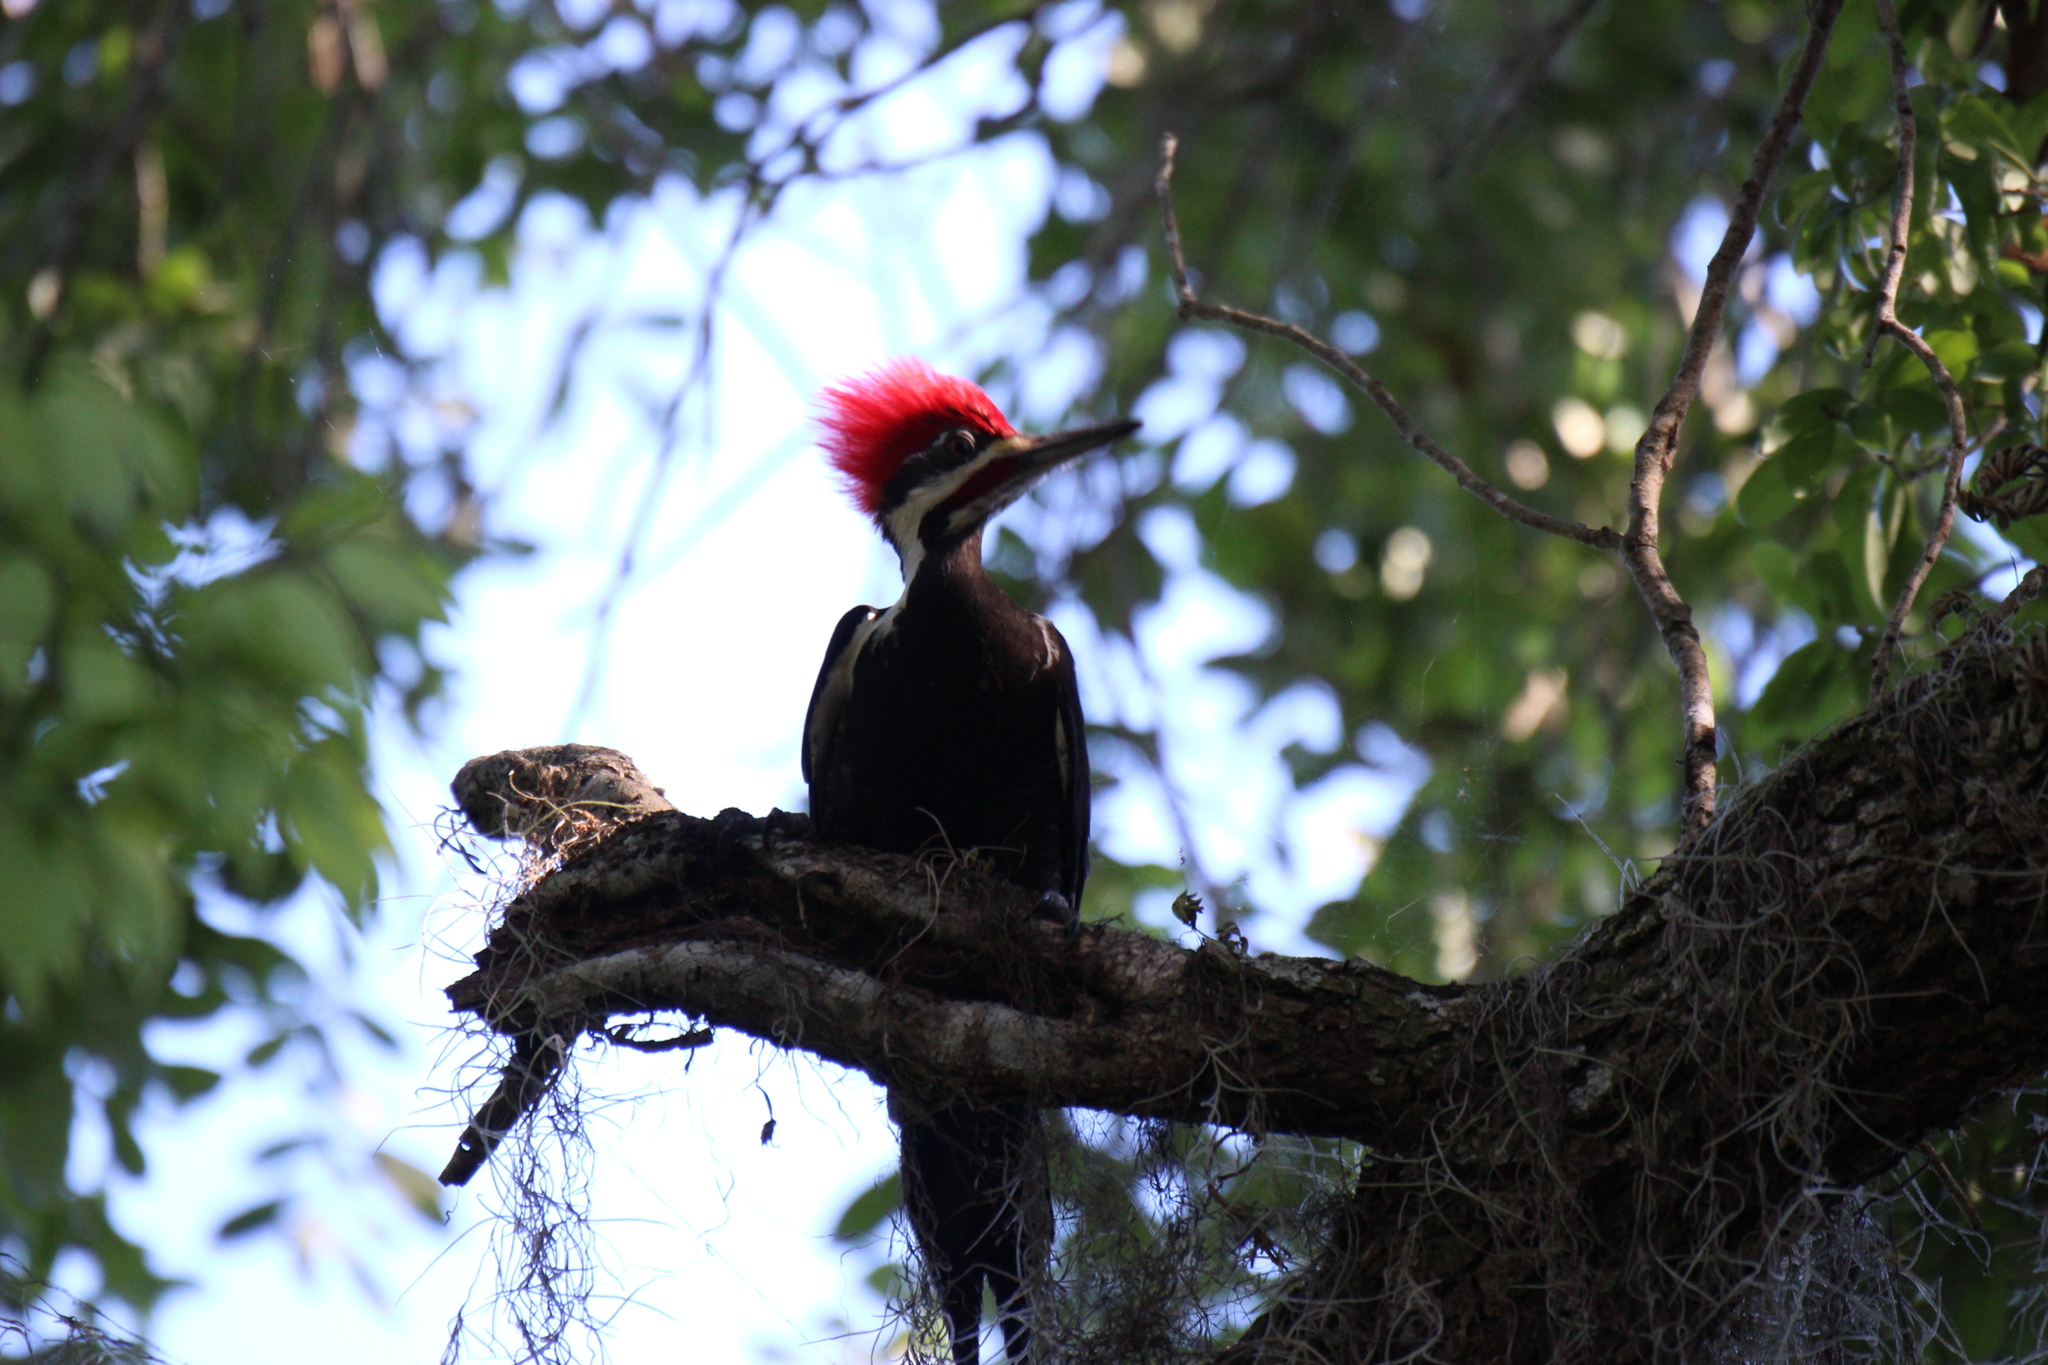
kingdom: Animalia
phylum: Chordata
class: Aves
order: Piciformes
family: Picidae
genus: Dryocopus
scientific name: Dryocopus pileatus
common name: Pileated woodpecker
